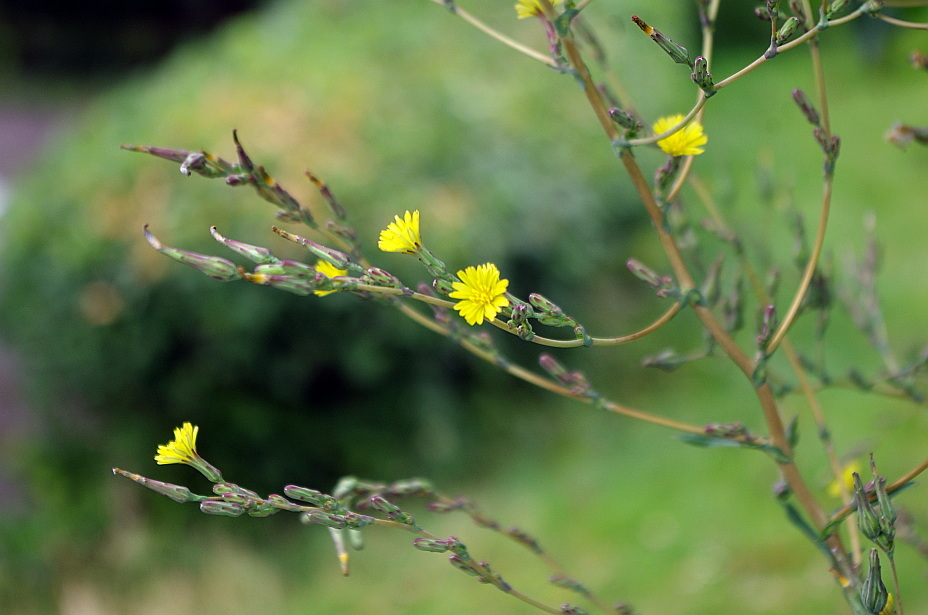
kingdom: Plantae
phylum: Tracheophyta
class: Magnoliopsida
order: Asterales
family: Asteraceae
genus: Lactuca
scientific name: Lactuca serriola
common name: Prickly lettuce
